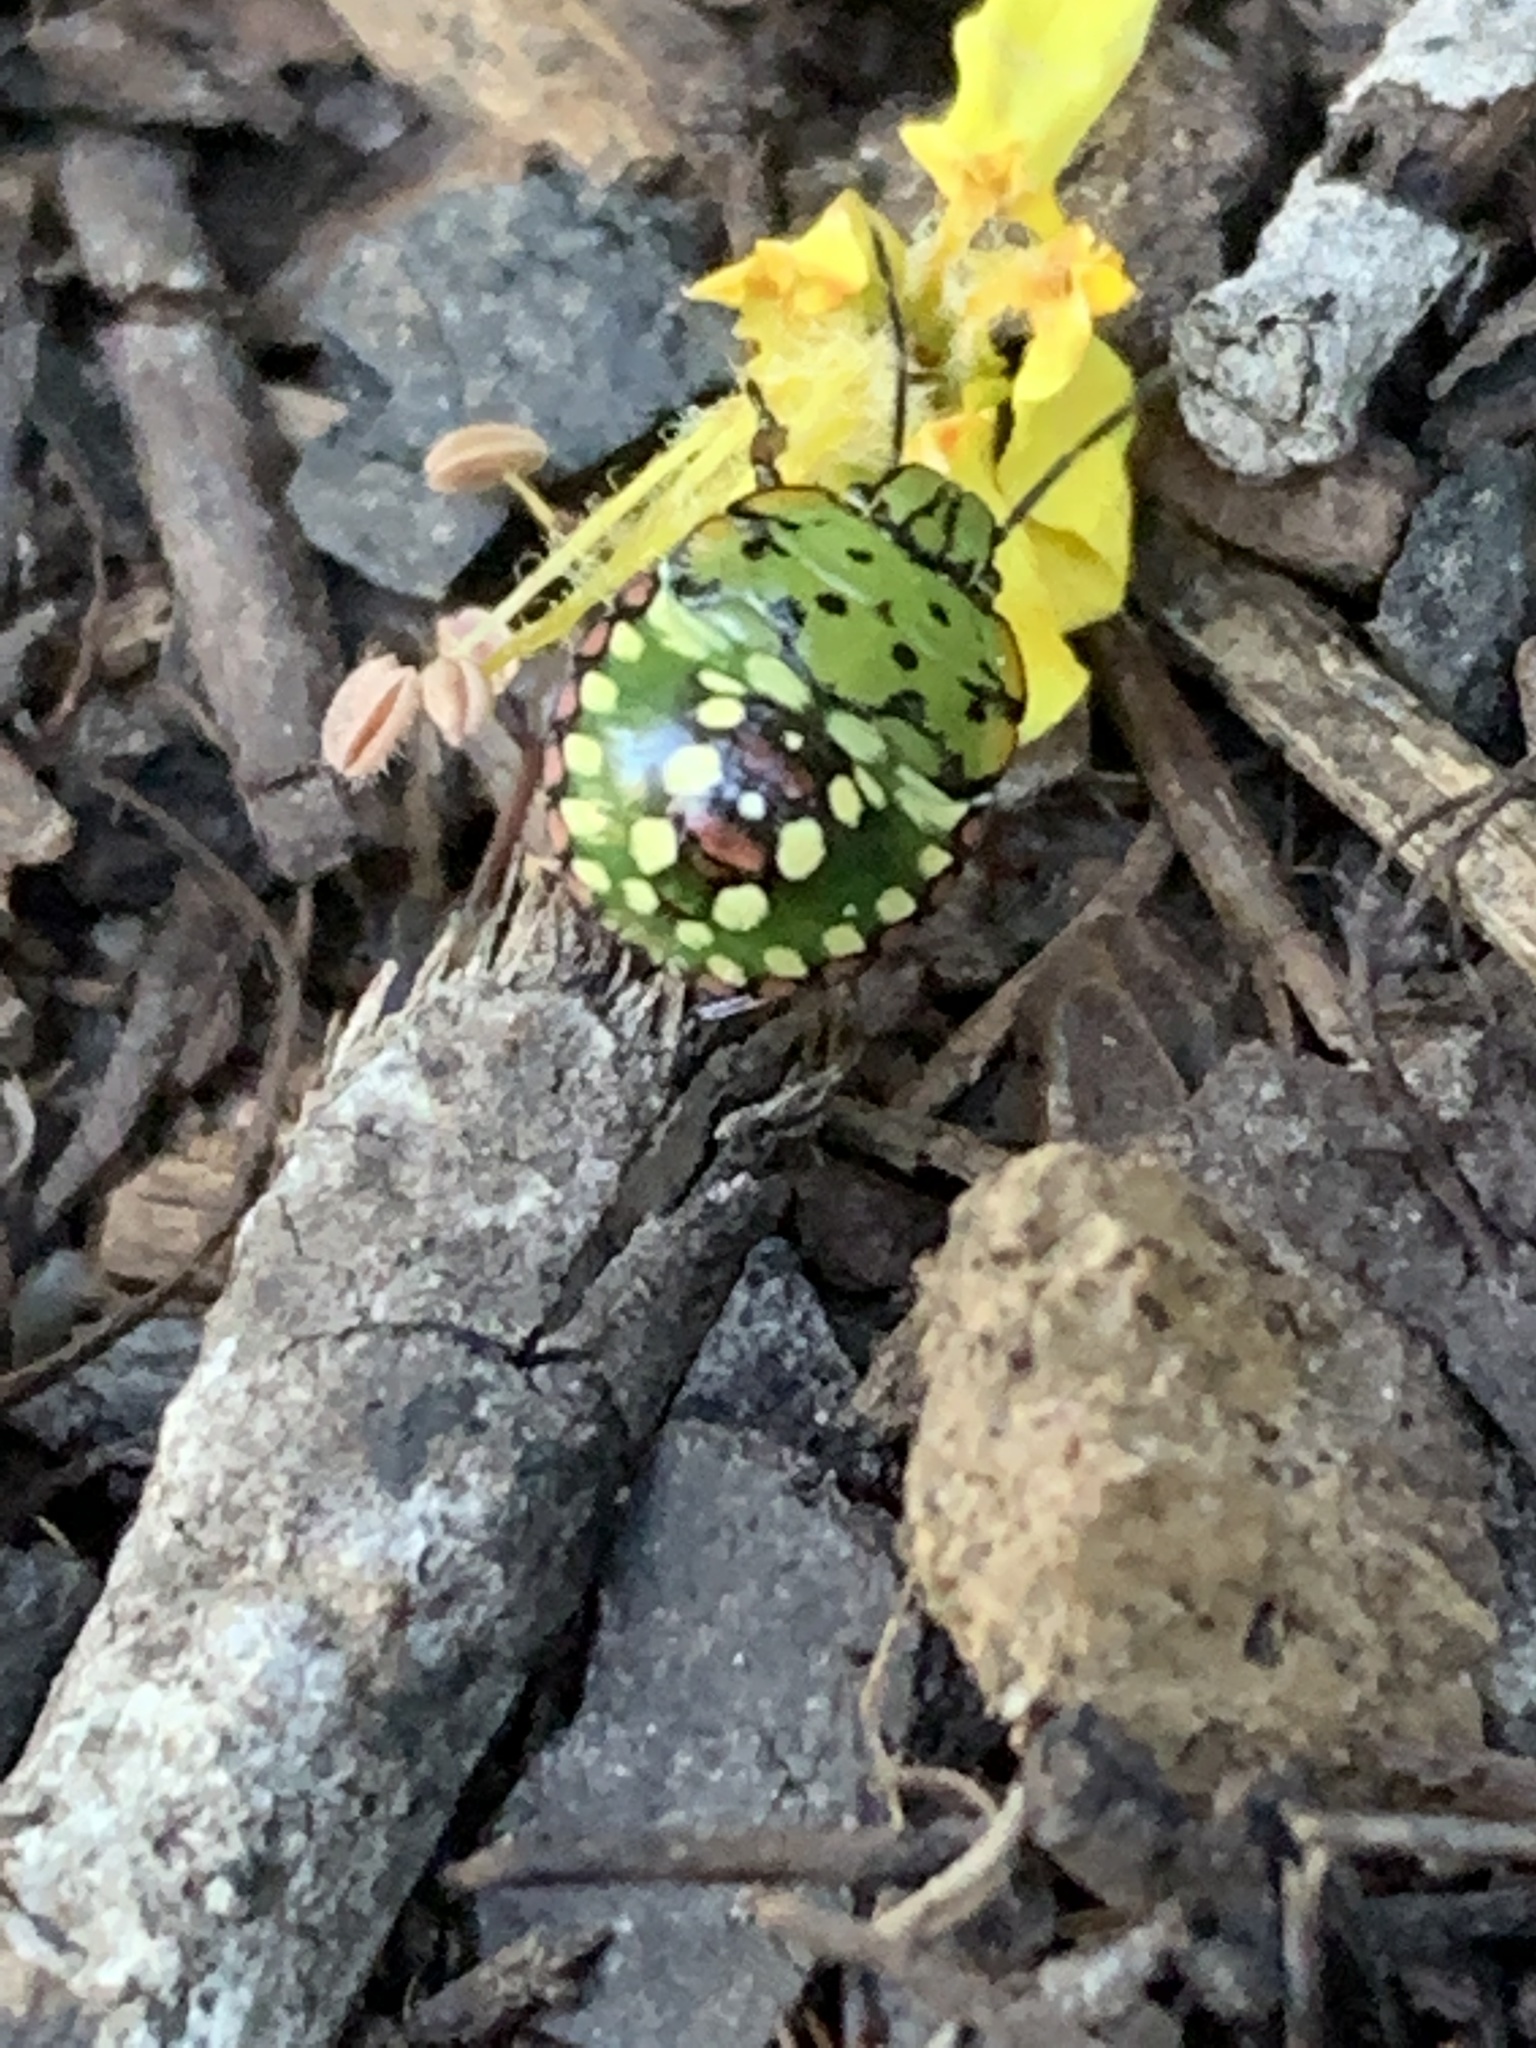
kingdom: Animalia
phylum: Arthropoda
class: Insecta
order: Hemiptera
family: Pentatomidae
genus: Nezara
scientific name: Nezara viridula
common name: Southern green stink bug
